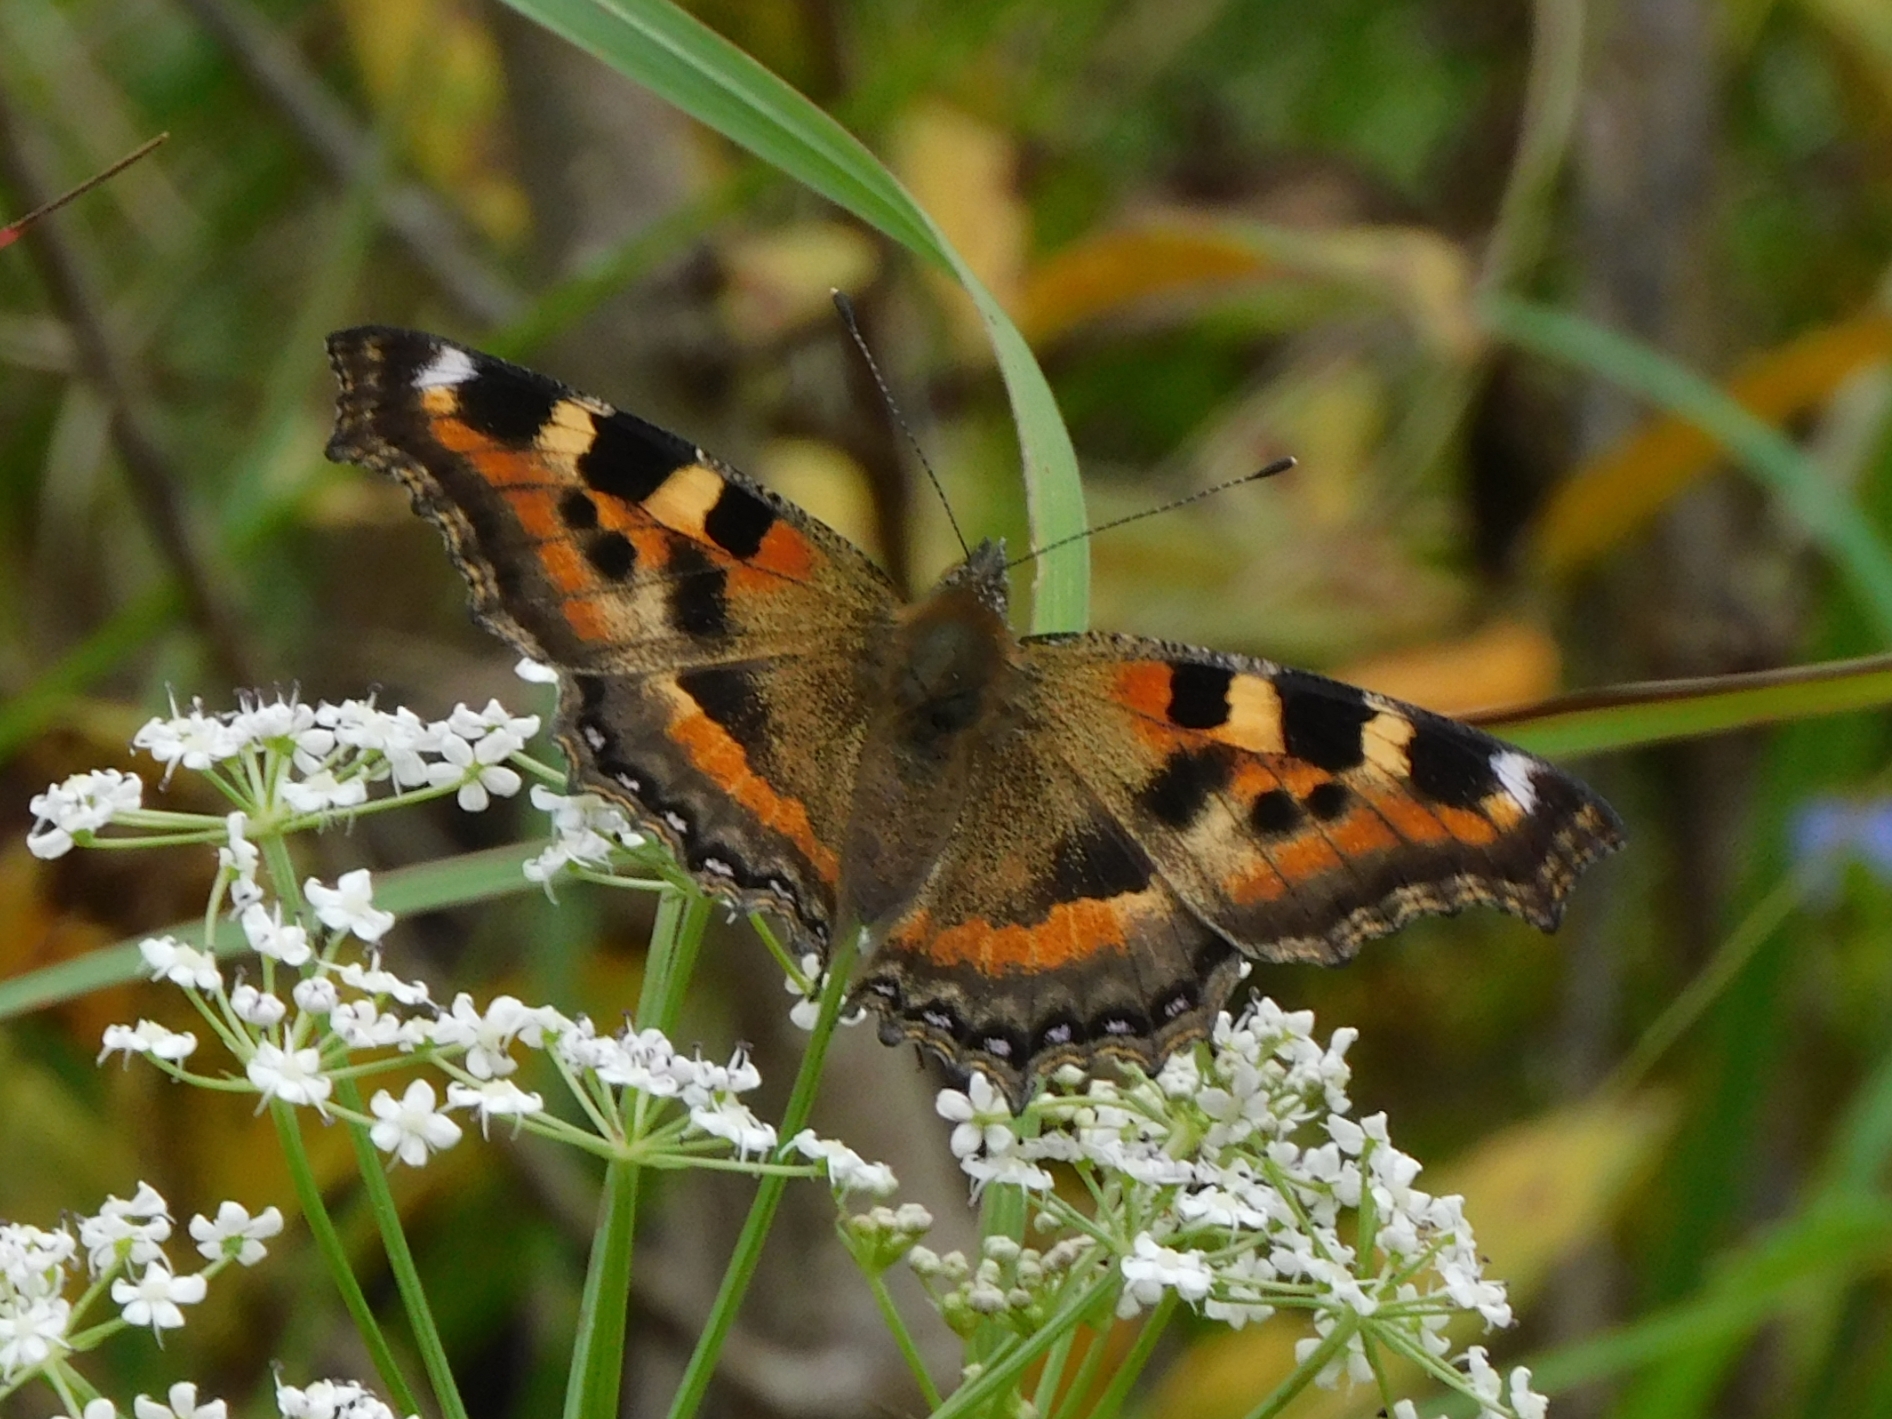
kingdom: Animalia
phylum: Arthropoda
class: Insecta
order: Lepidoptera
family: Nymphalidae
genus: Aglais
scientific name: Aglais caschmirensis
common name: Indian tortoiseshell
